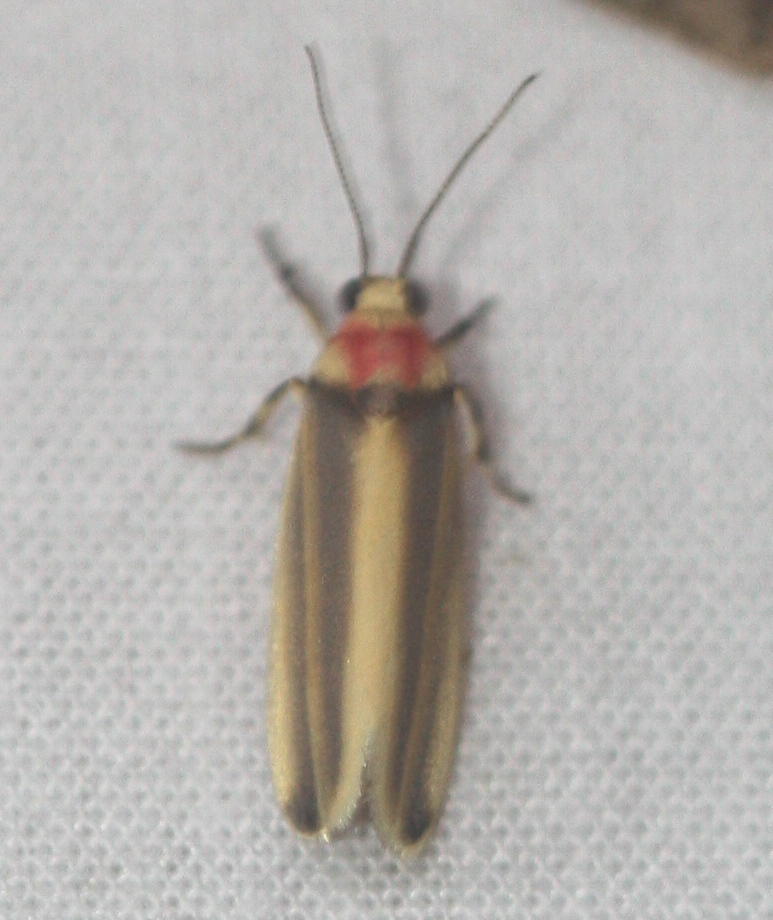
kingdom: Animalia
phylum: Arthropoda
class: Insecta
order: Lepidoptera
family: Erebidae
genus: Rhabdatomis
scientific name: Rhabdatomis cora
